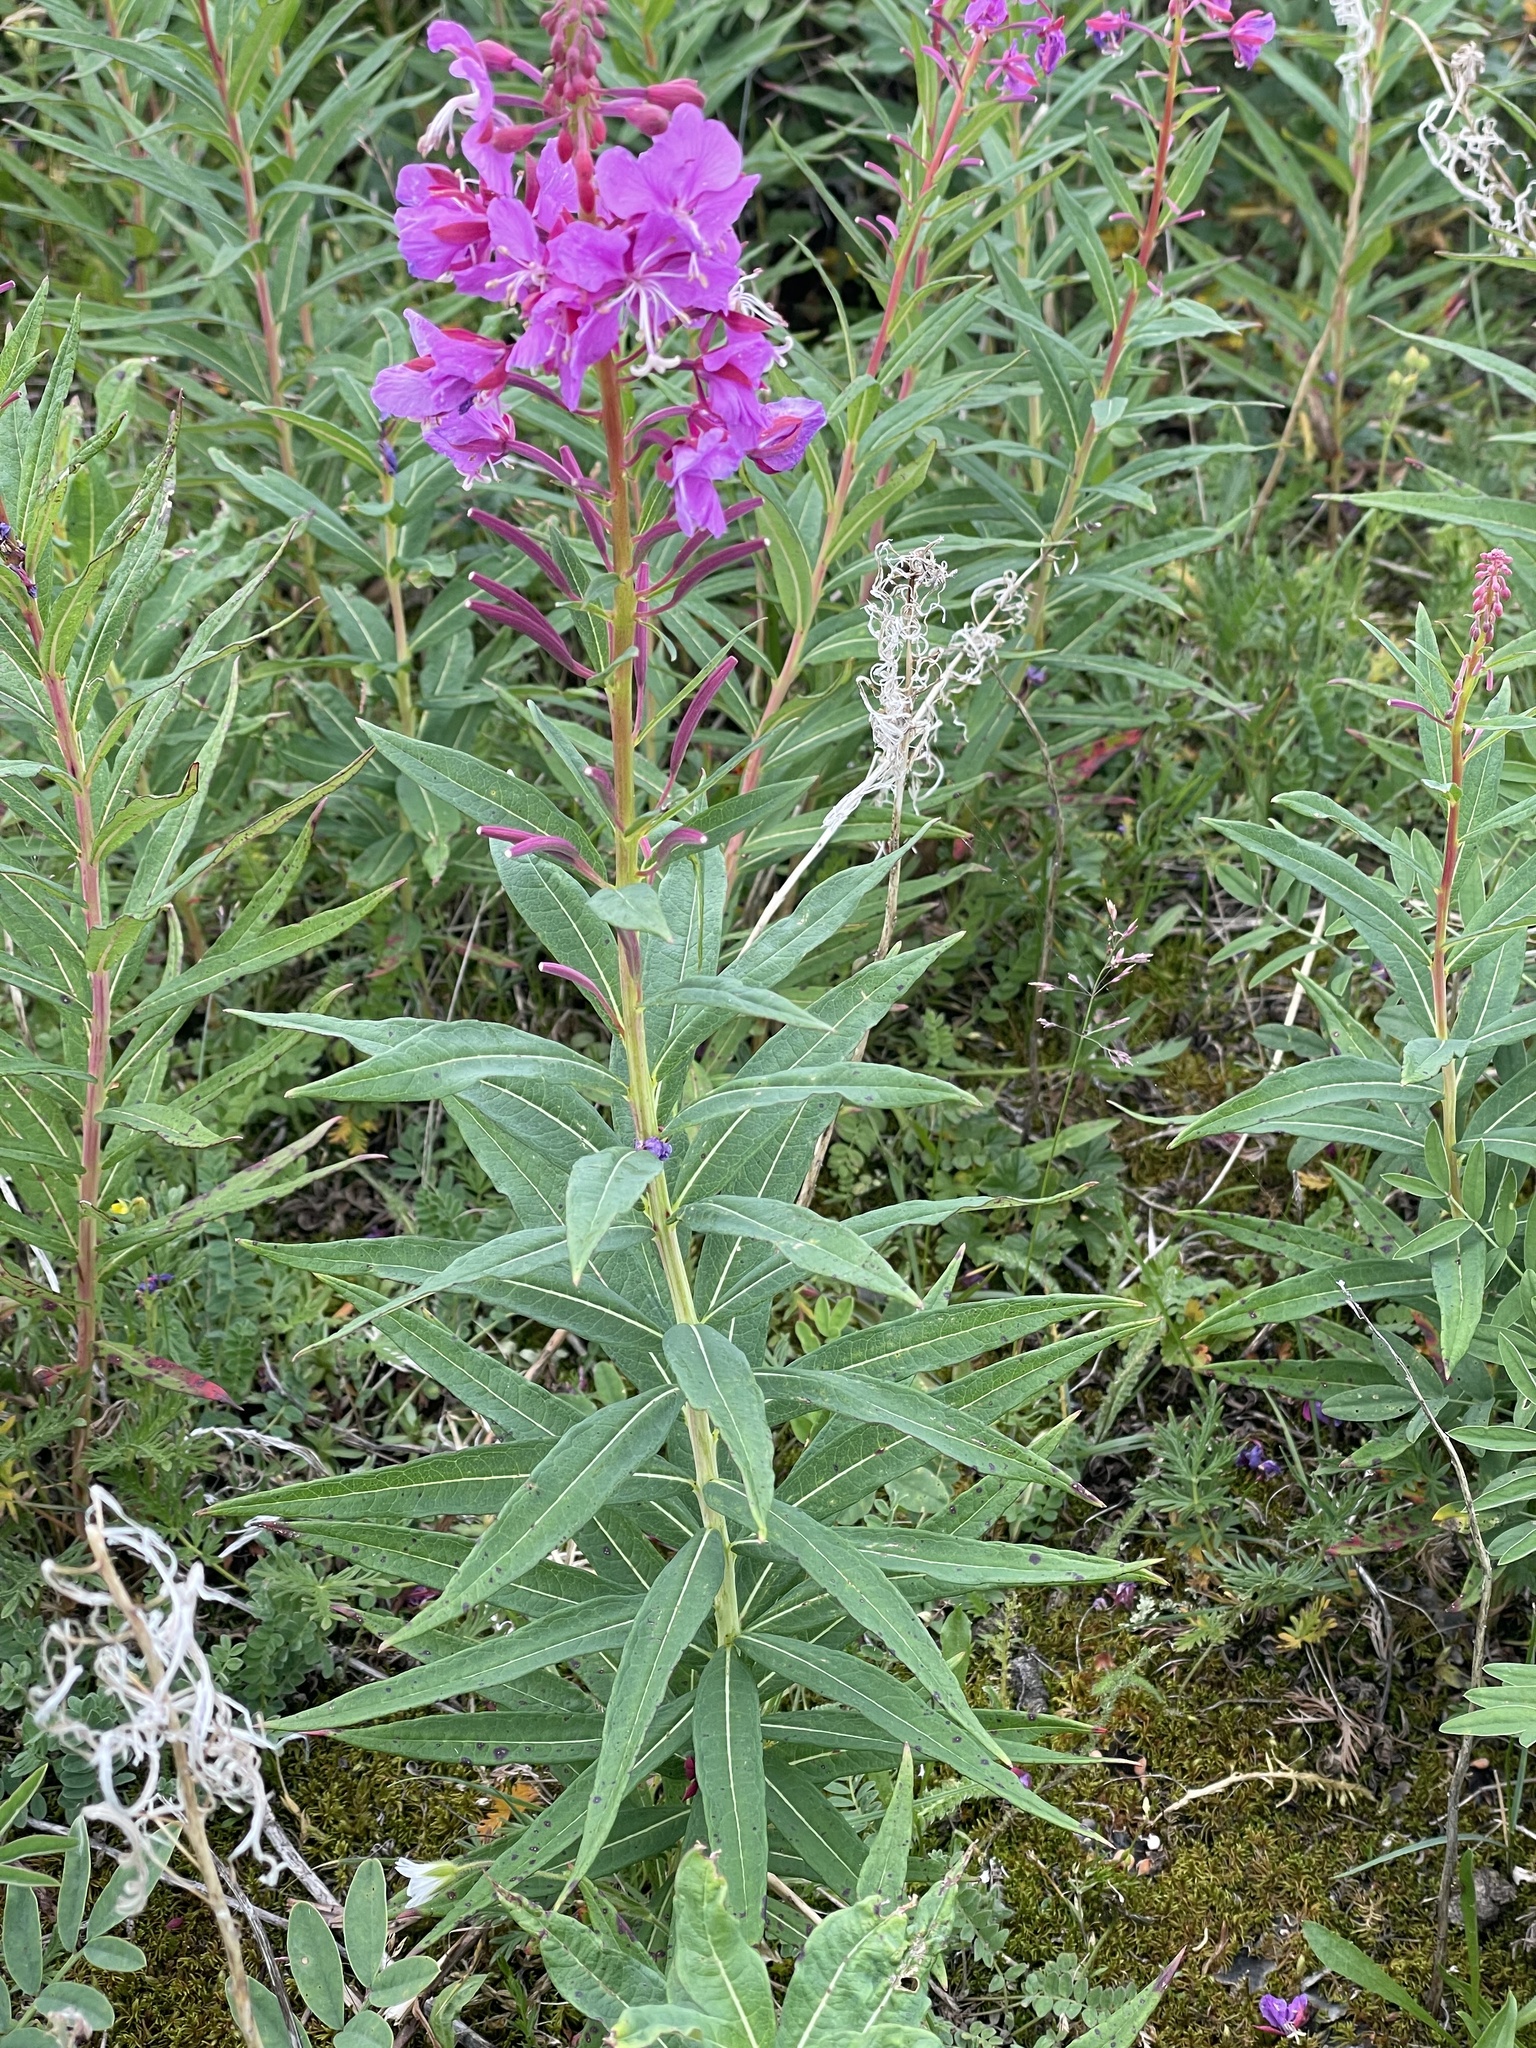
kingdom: Plantae
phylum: Tracheophyta
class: Magnoliopsida
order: Myrtales
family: Onagraceae
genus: Chamaenerion
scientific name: Chamaenerion angustifolium
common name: Fireweed
